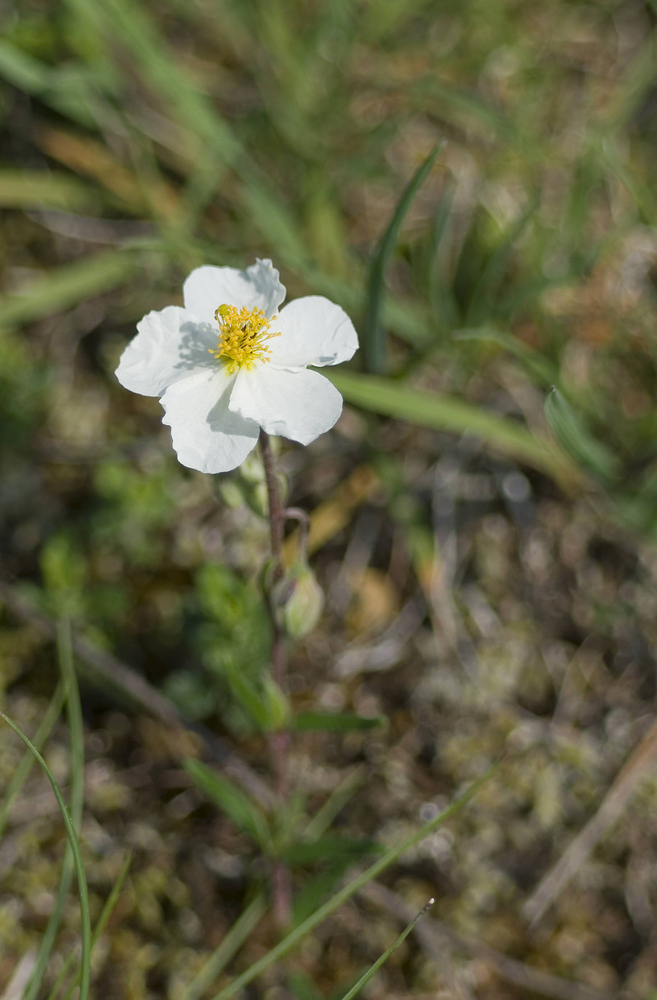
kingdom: Plantae
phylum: Tracheophyta
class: Magnoliopsida
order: Malvales
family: Cistaceae
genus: Helianthemum
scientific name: Helianthemum apenninum
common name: White rock-rose
